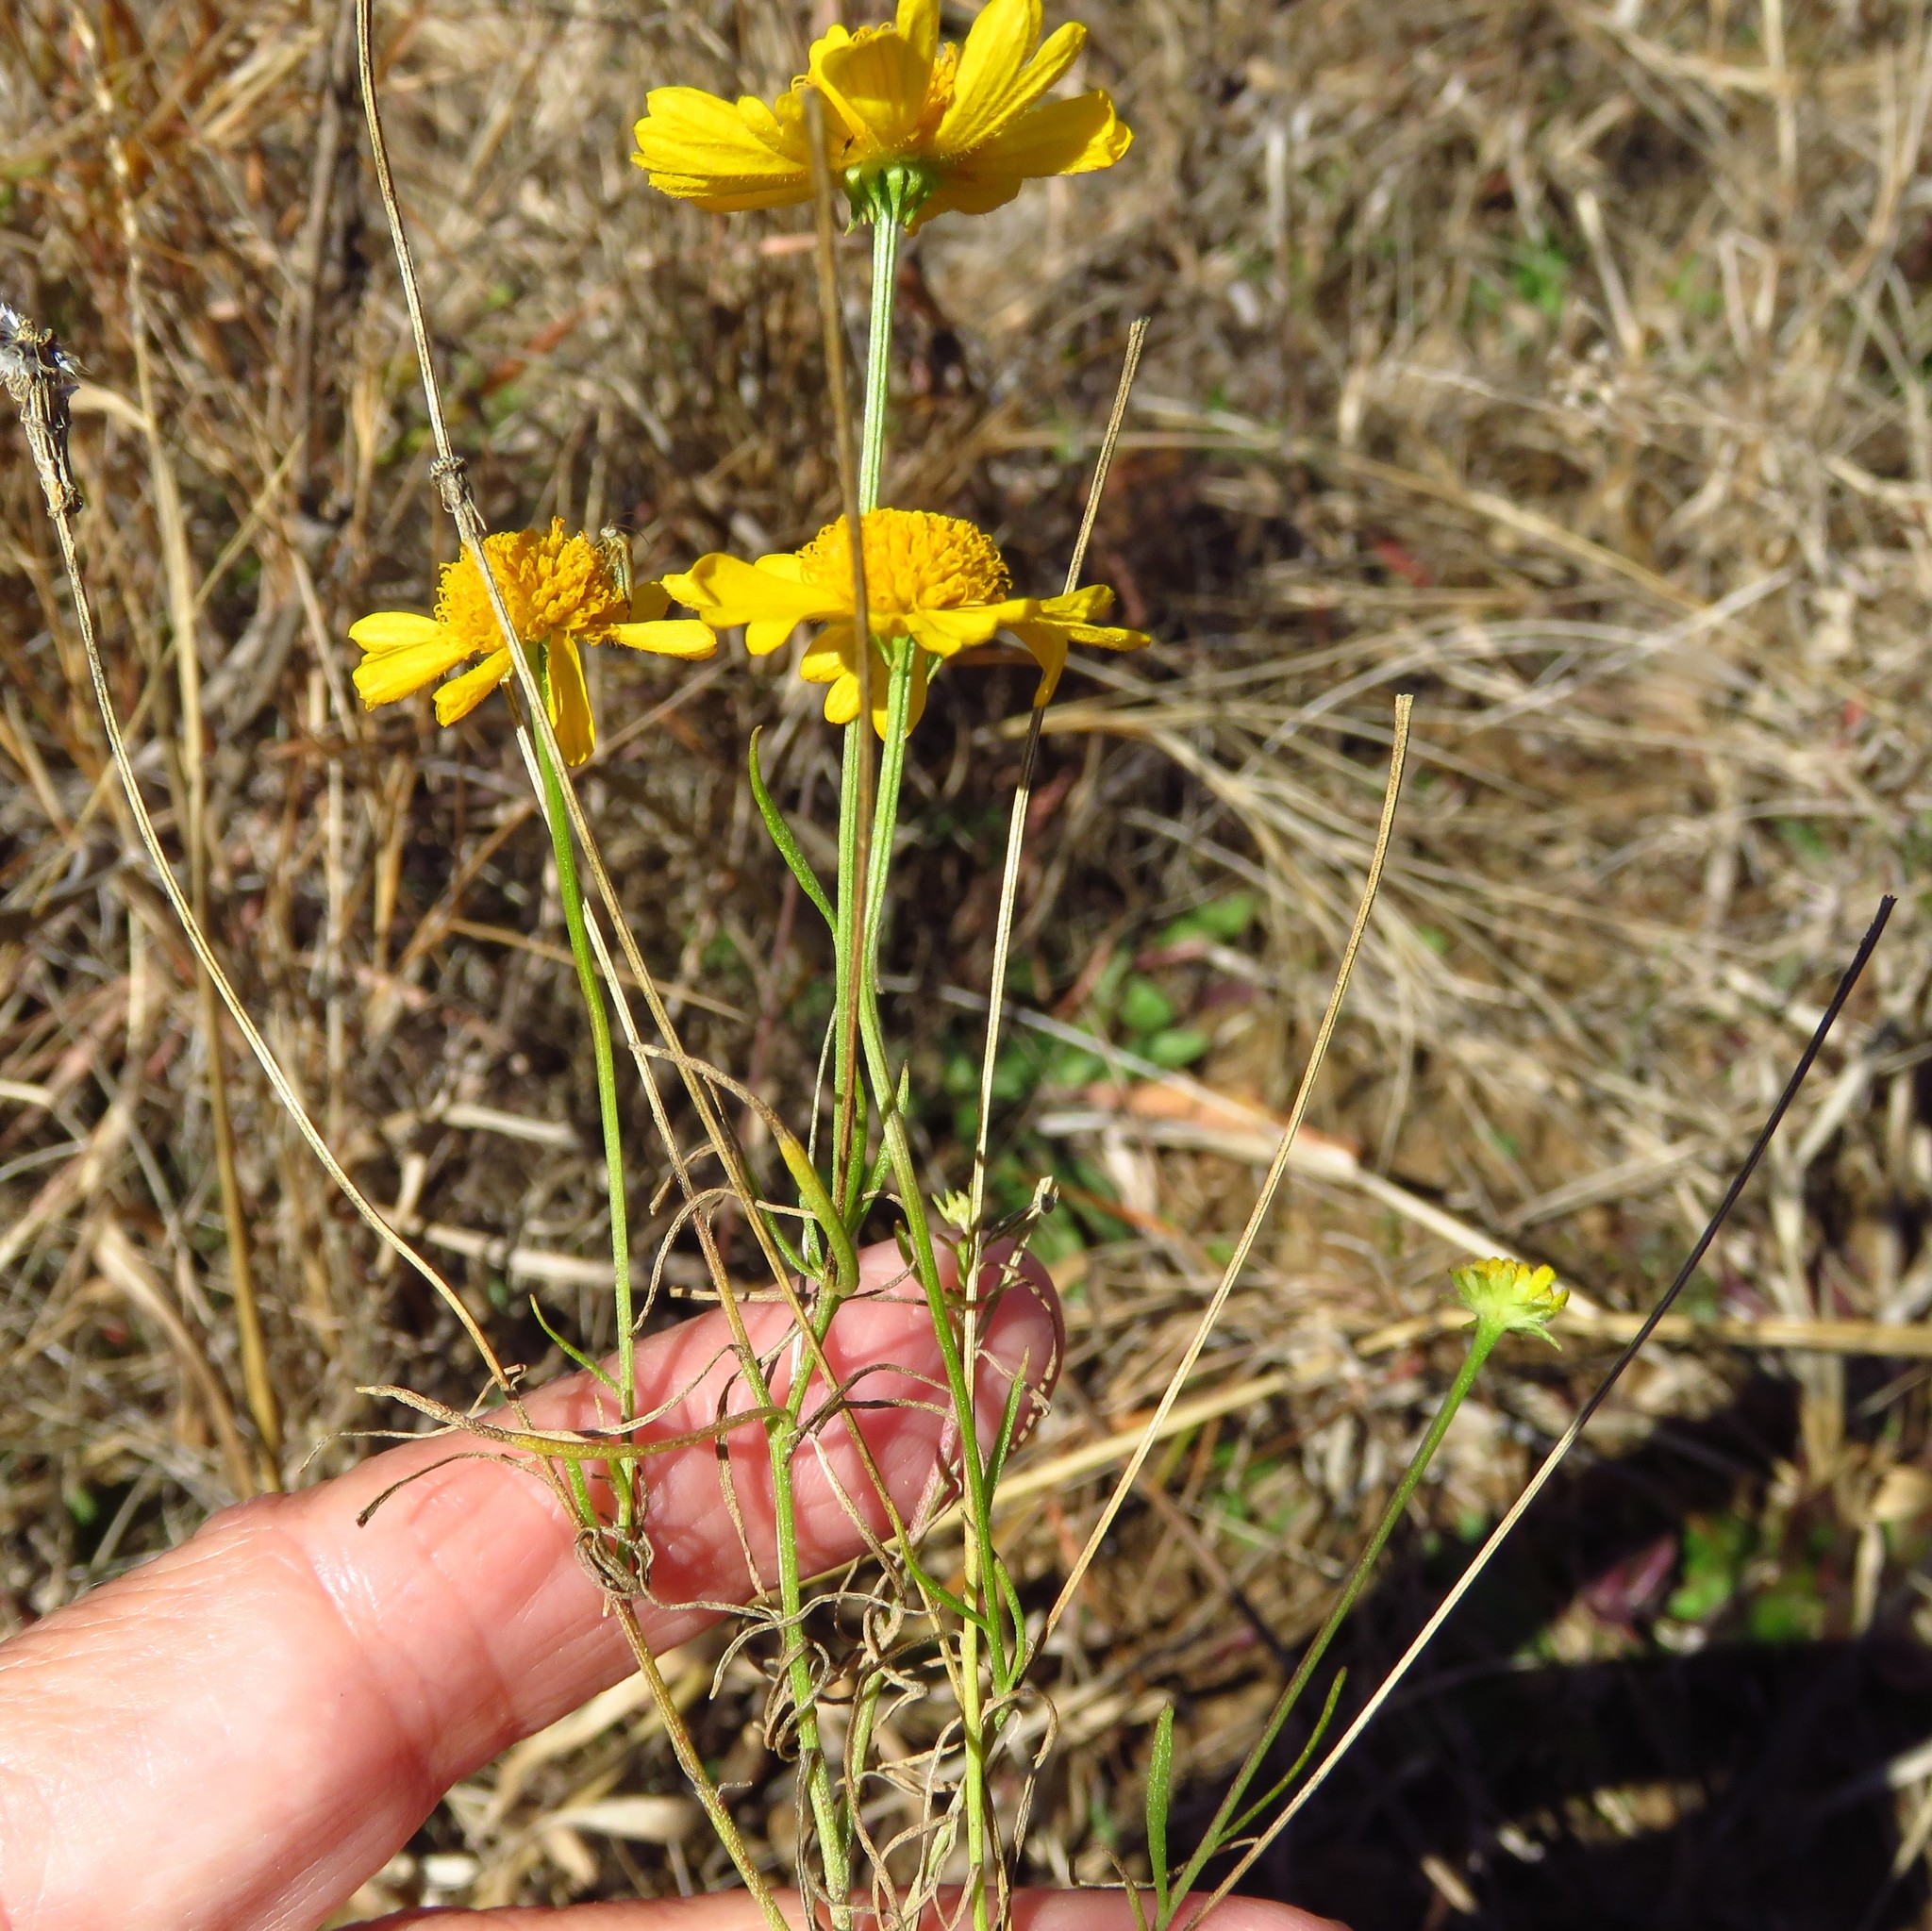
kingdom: Plantae
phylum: Tracheophyta
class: Magnoliopsida
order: Asterales
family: Asteraceae
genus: Helenium
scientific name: Helenium amarum
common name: Bitter sneezeweed
